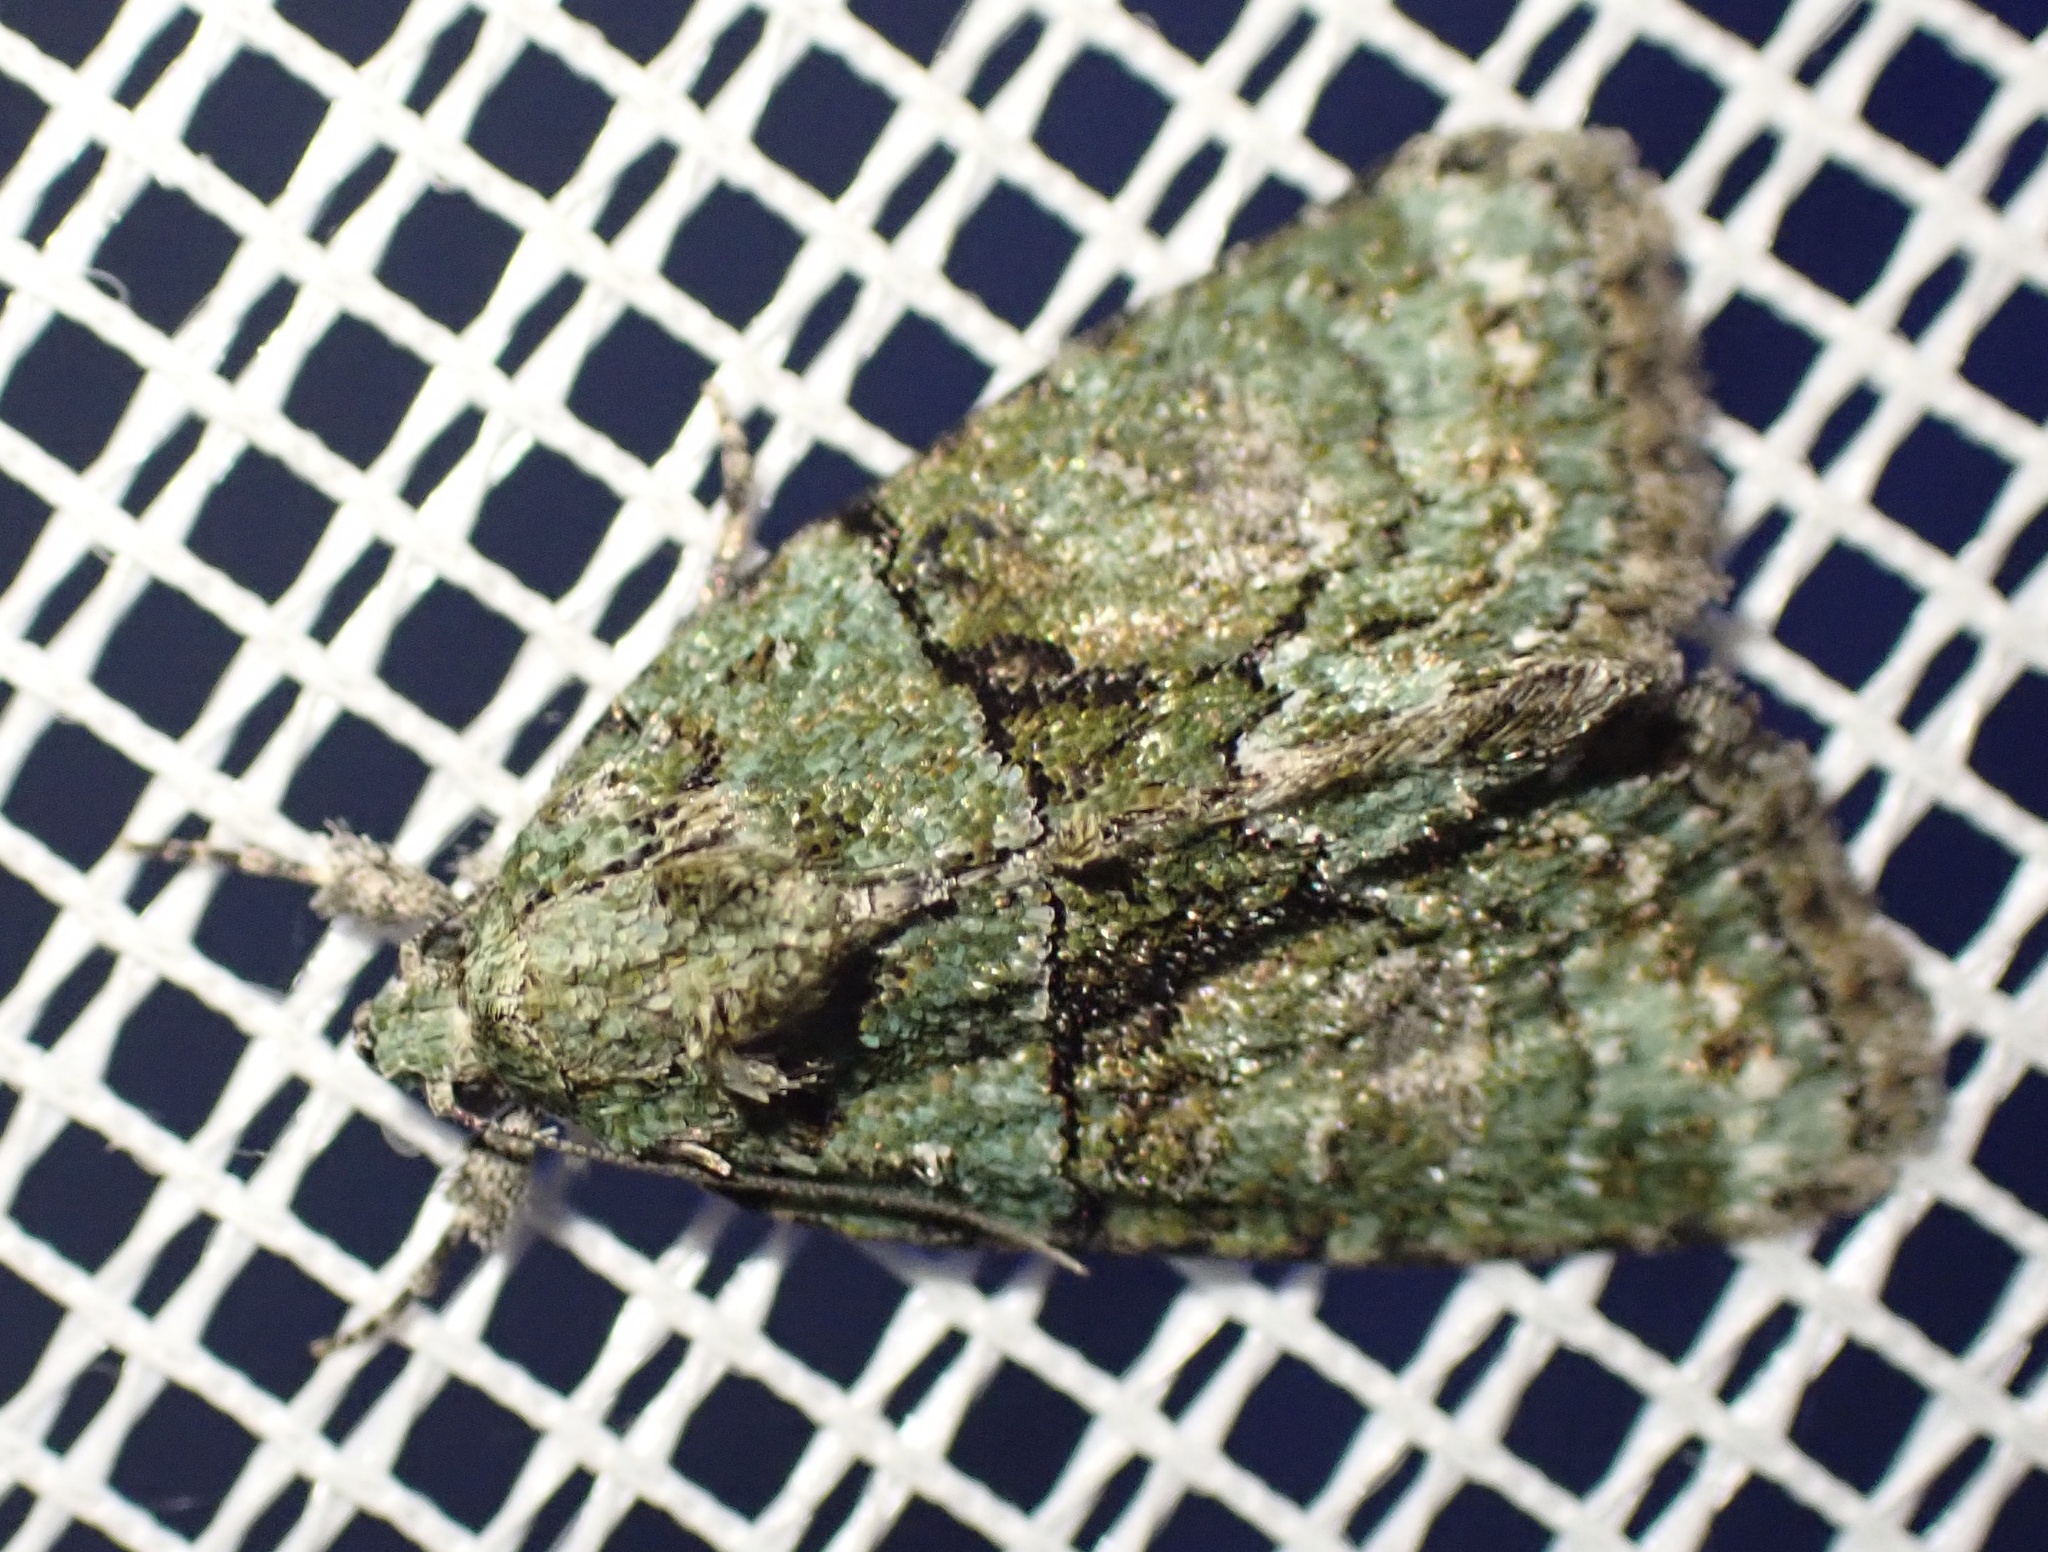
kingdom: Animalia
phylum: Arthropoda
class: Insecta
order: Lepidoptera
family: Noctuidae
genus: Cryphia
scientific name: Cryphia algae
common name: Tree-lichen beauty
